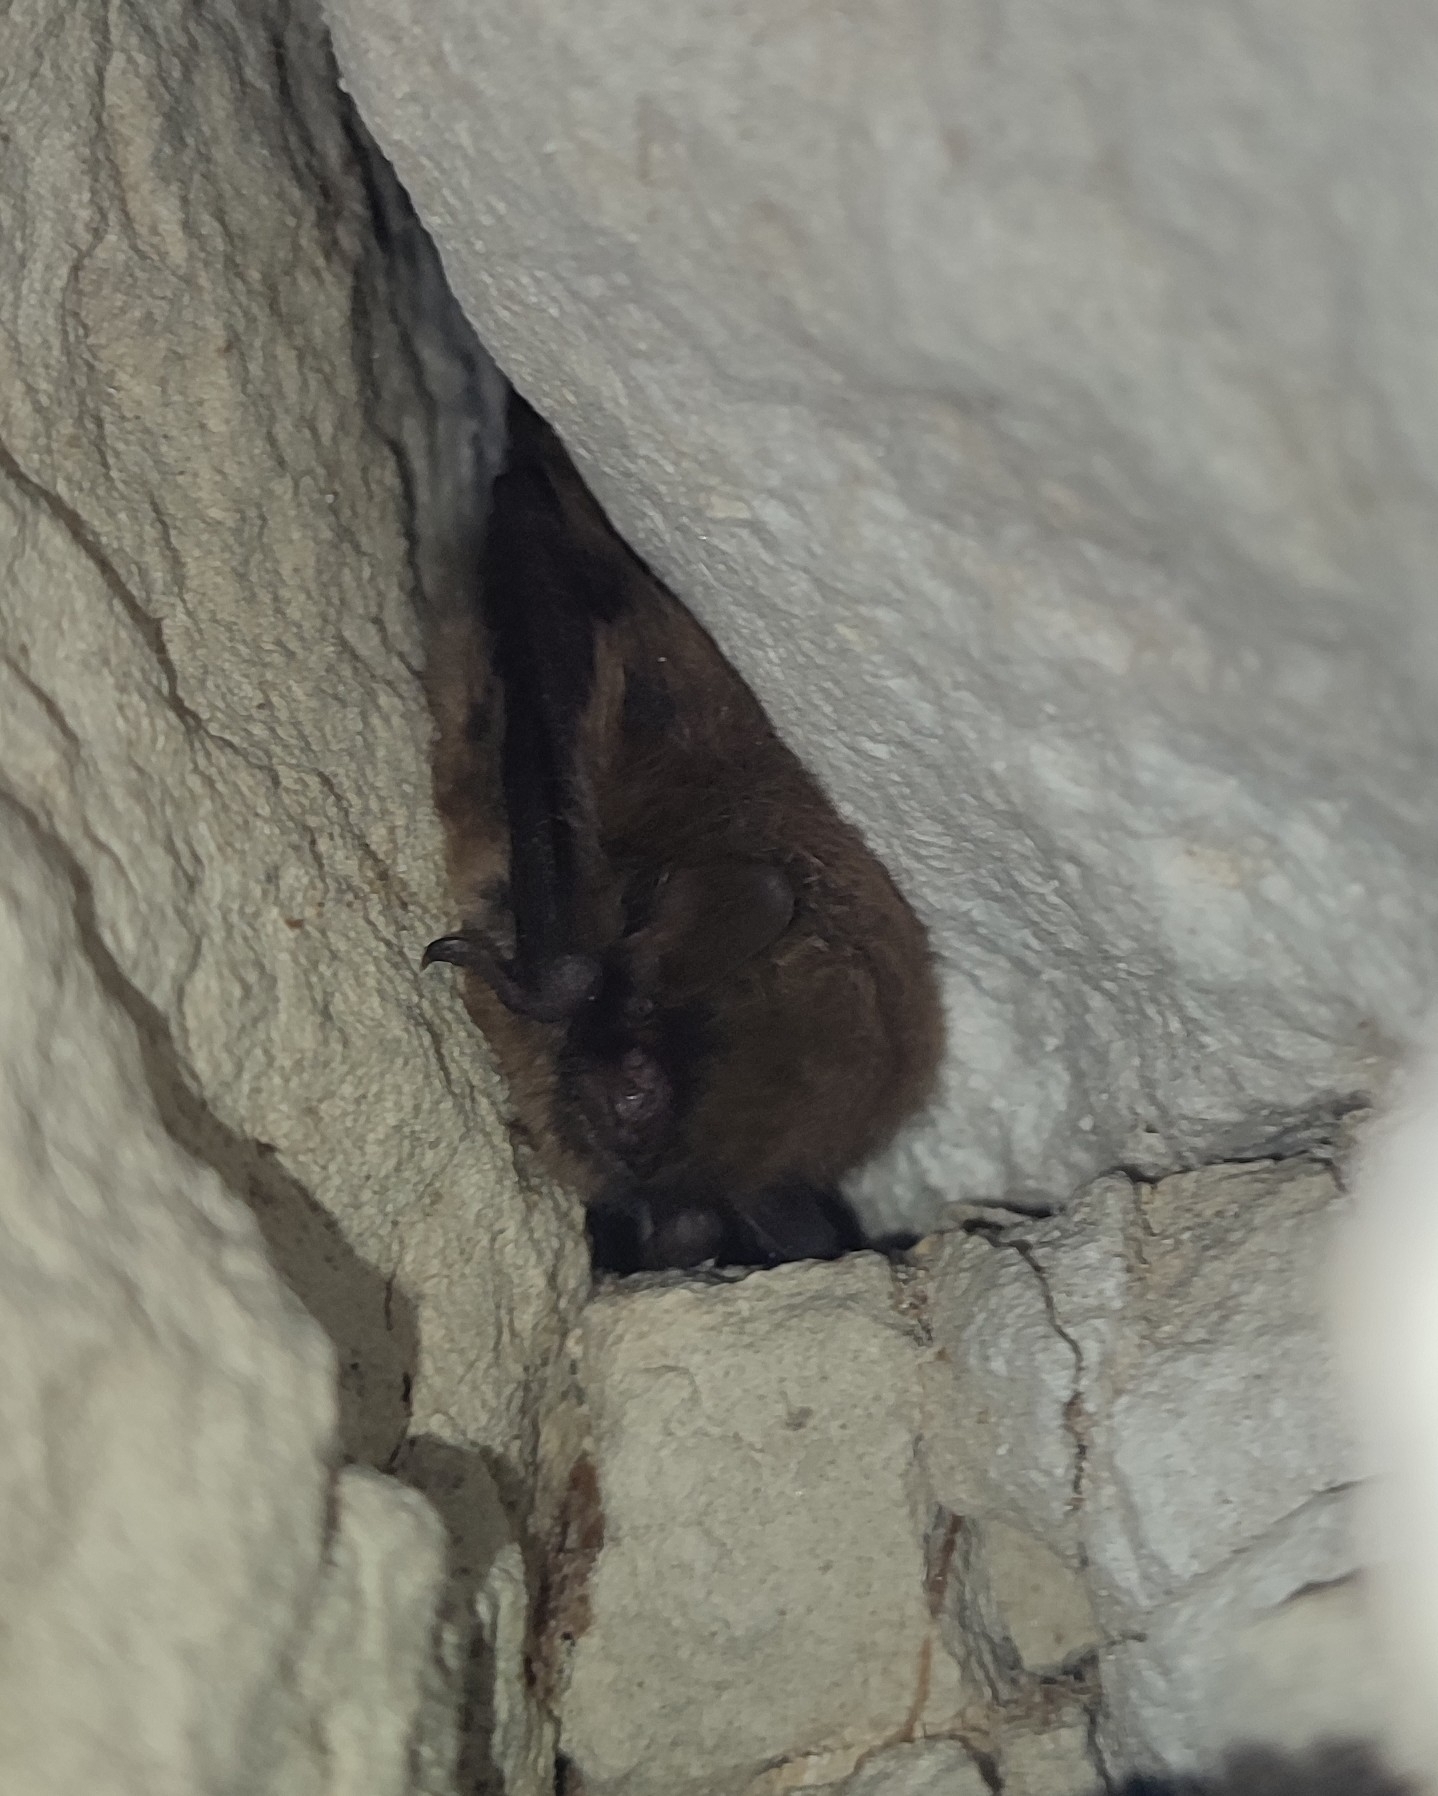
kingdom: Animalia
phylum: Chordata
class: Mammalia
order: Chiroptera
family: Vespertilionidae
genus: Myotis
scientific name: Myotis emarginatus
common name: Geoffroy's bat
